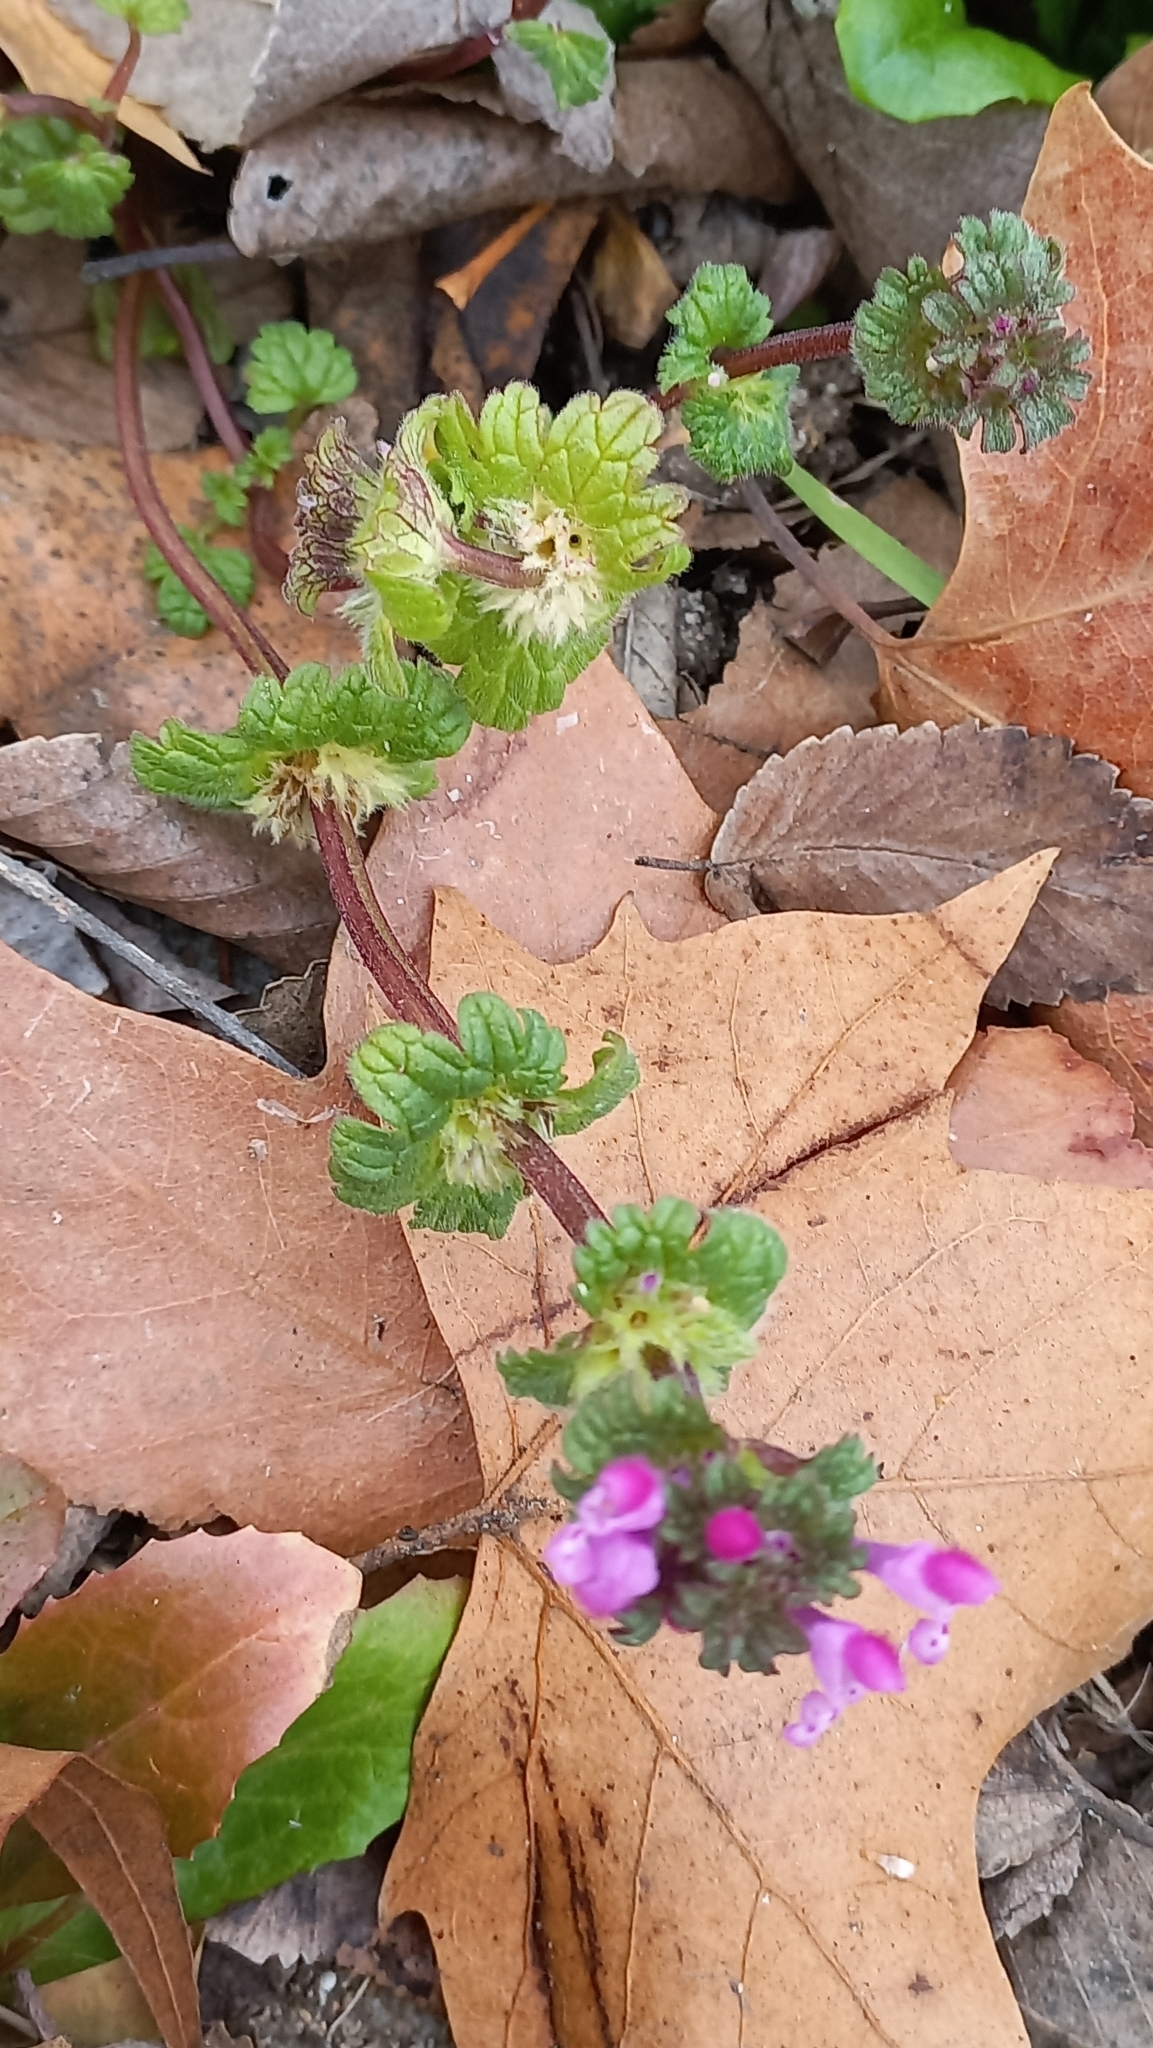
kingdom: Plantae
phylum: Tracheophyta
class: Magnoliopsida
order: Lamiales
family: Lamiaceae
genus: Lamium
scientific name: Lamium amplexicaule
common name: Henbit dead-nettle
